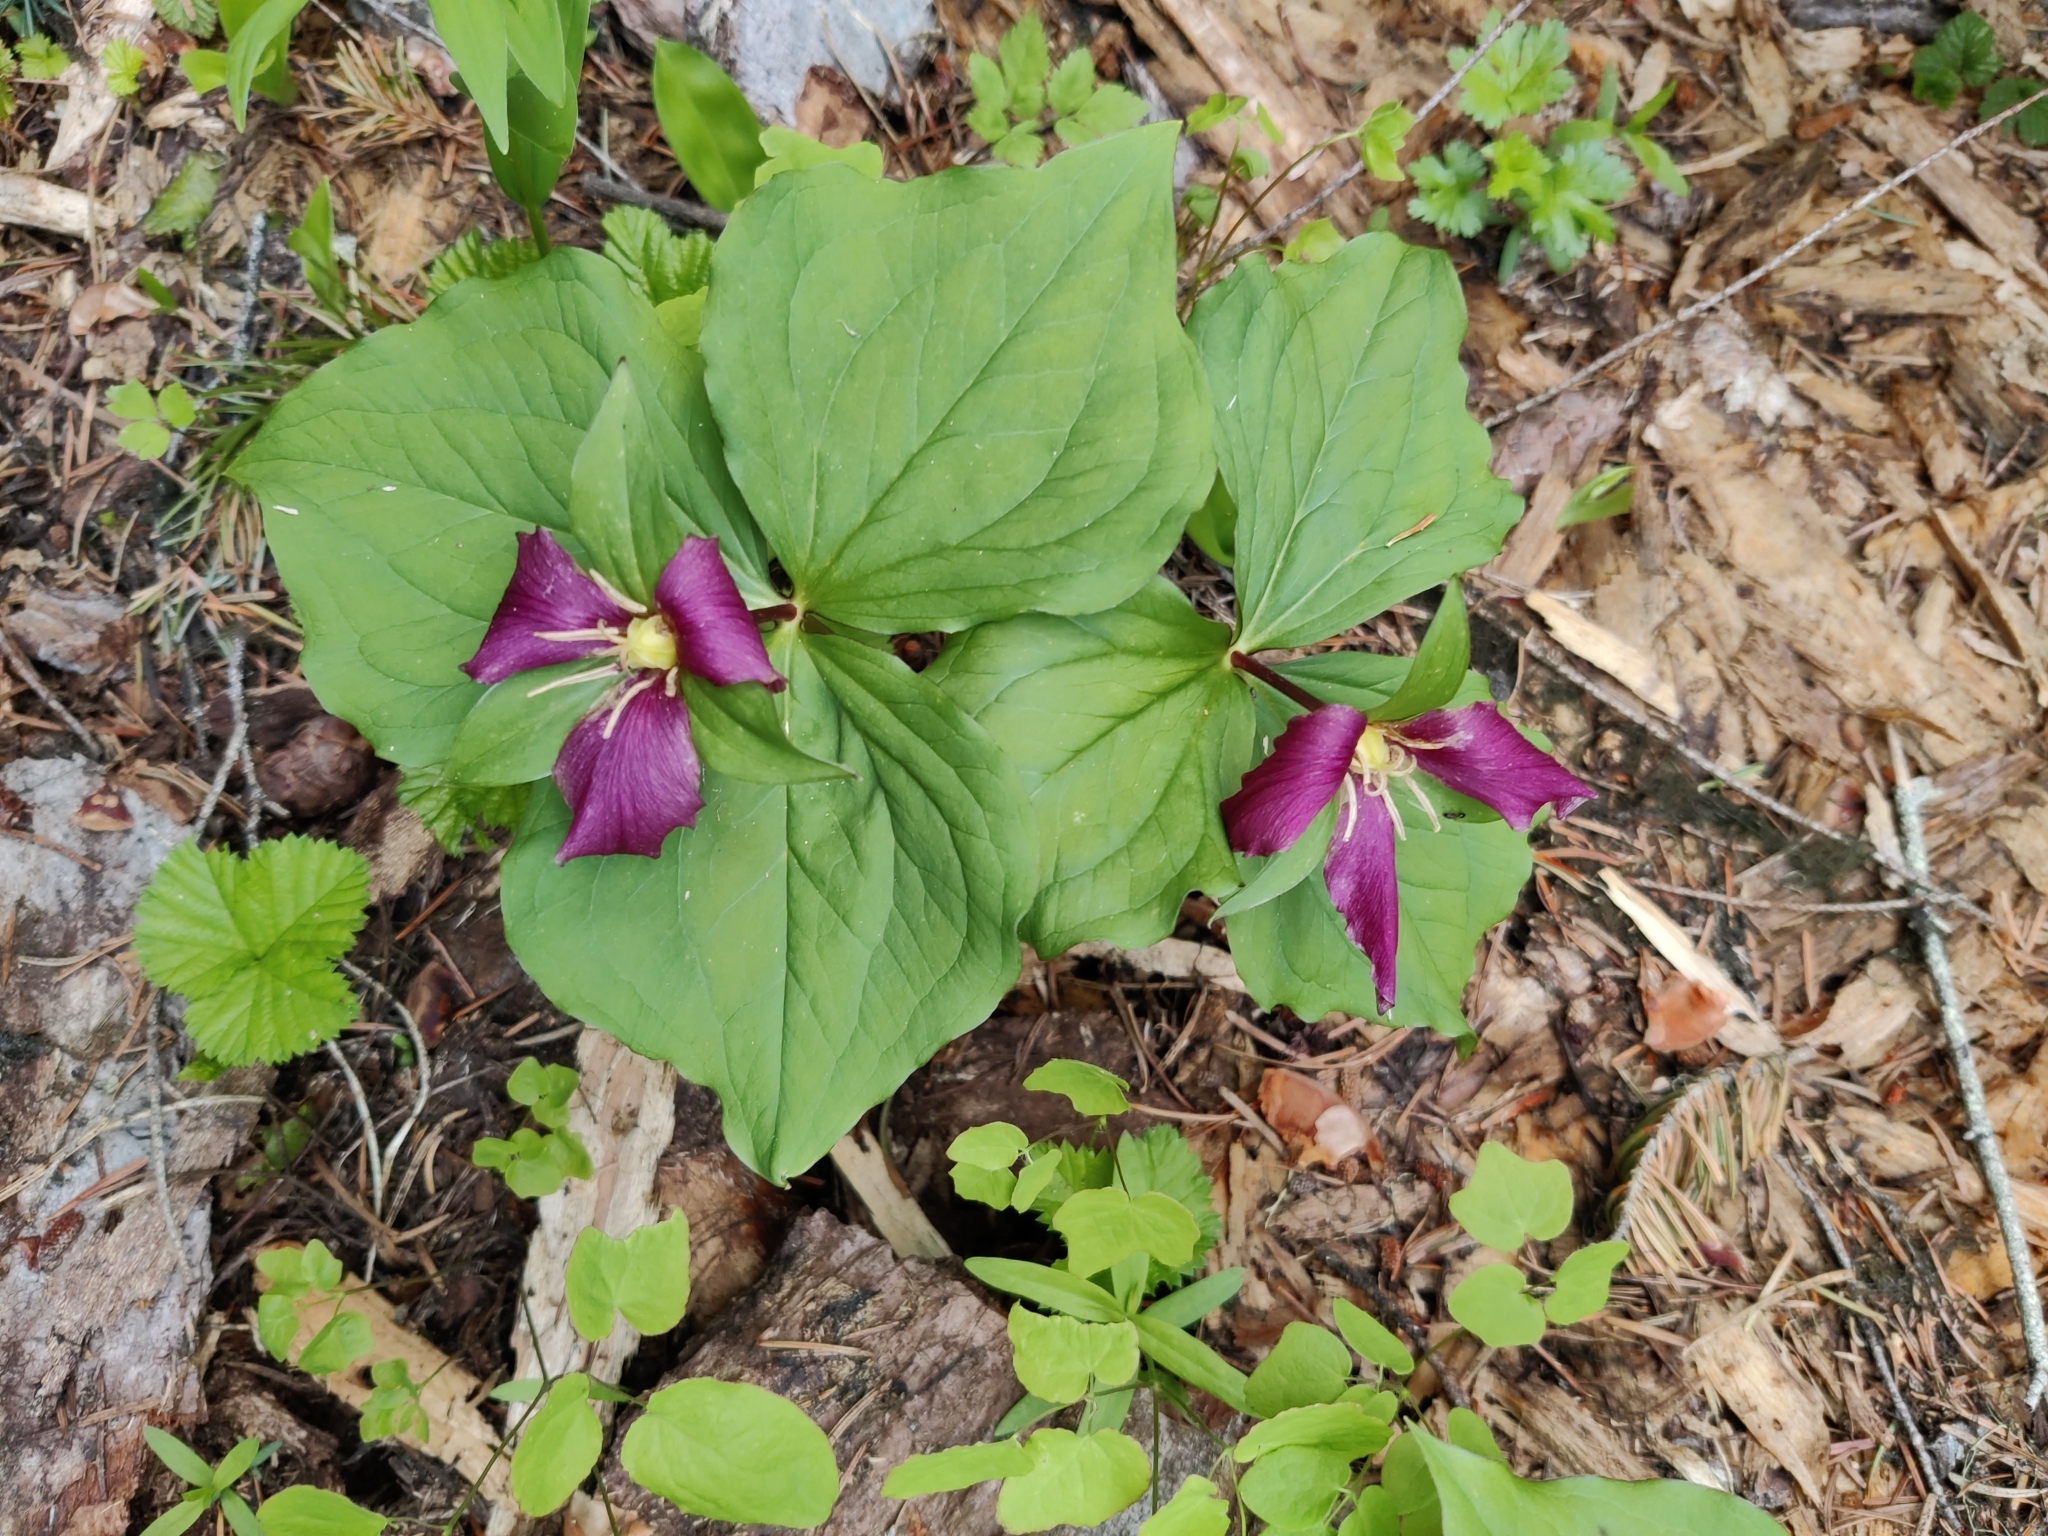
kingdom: Plantae
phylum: Tracheophyta
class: Liliopsida
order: Liliales
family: Melanthiaceae
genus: Trillium
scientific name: Trillium ovatum
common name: Pacific trillium
